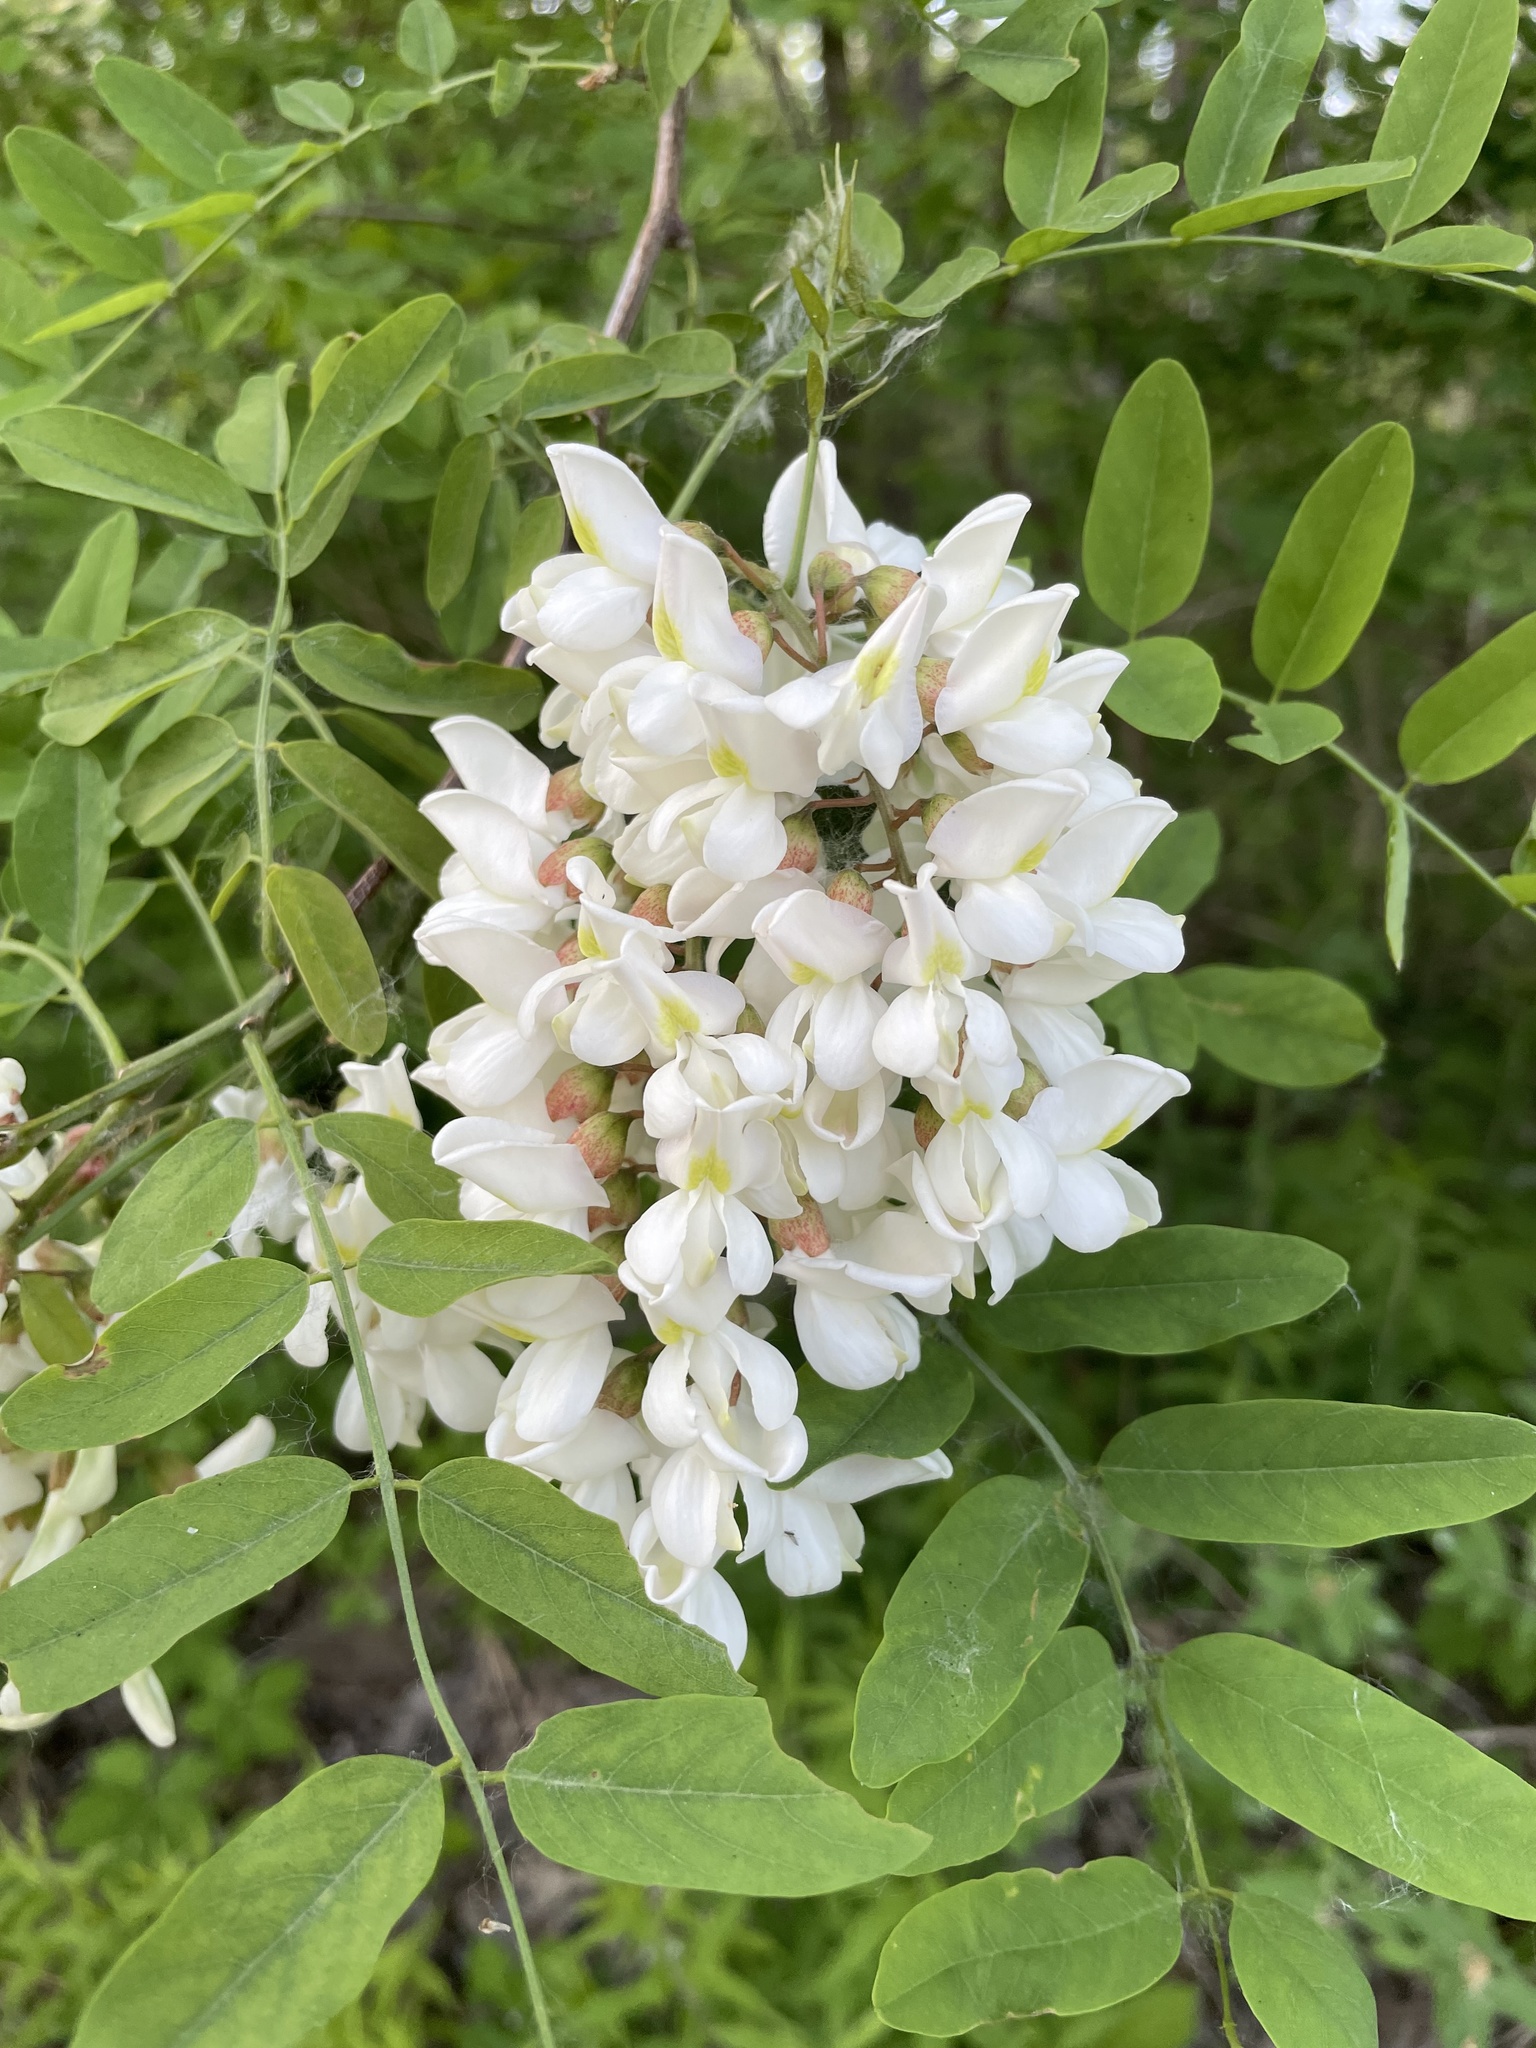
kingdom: Plantae
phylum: Tracheophyta
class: Magnoliopsida
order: Fabales
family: Fabaceae
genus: Robinia
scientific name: Robinia pseudoacacia
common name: Black locust
